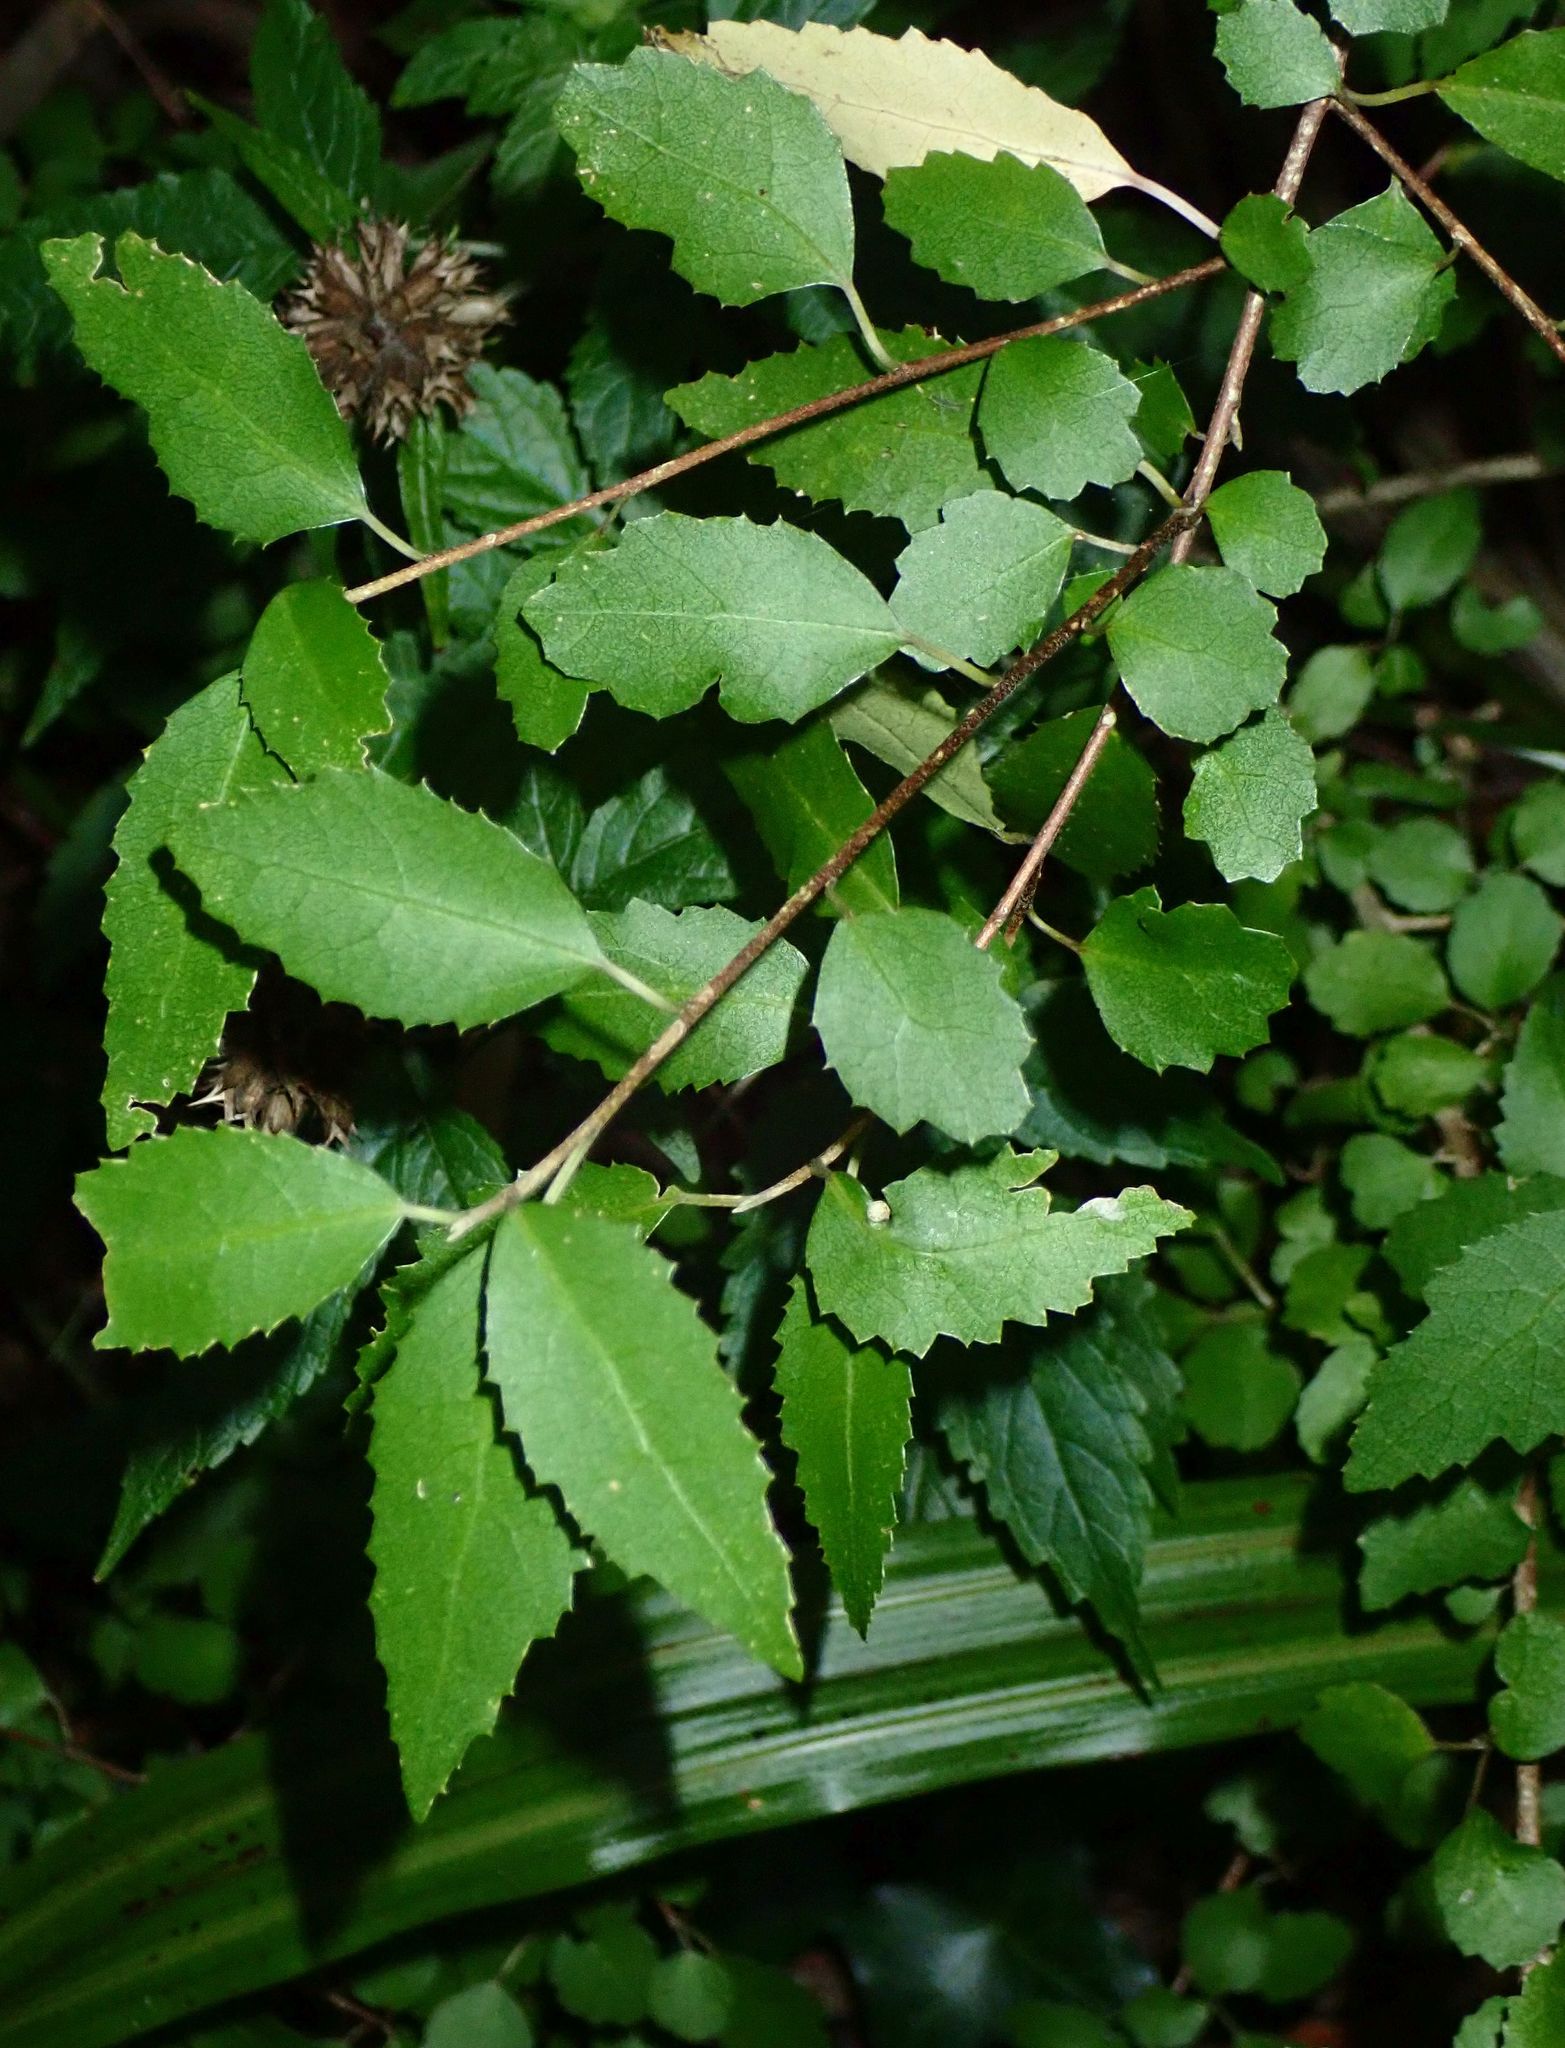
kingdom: Plantae
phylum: Tracheophyta
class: Magnoliopsida
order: Malvales
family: Malvaceae
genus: Hoheria
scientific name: Hoheria sexstylosa
